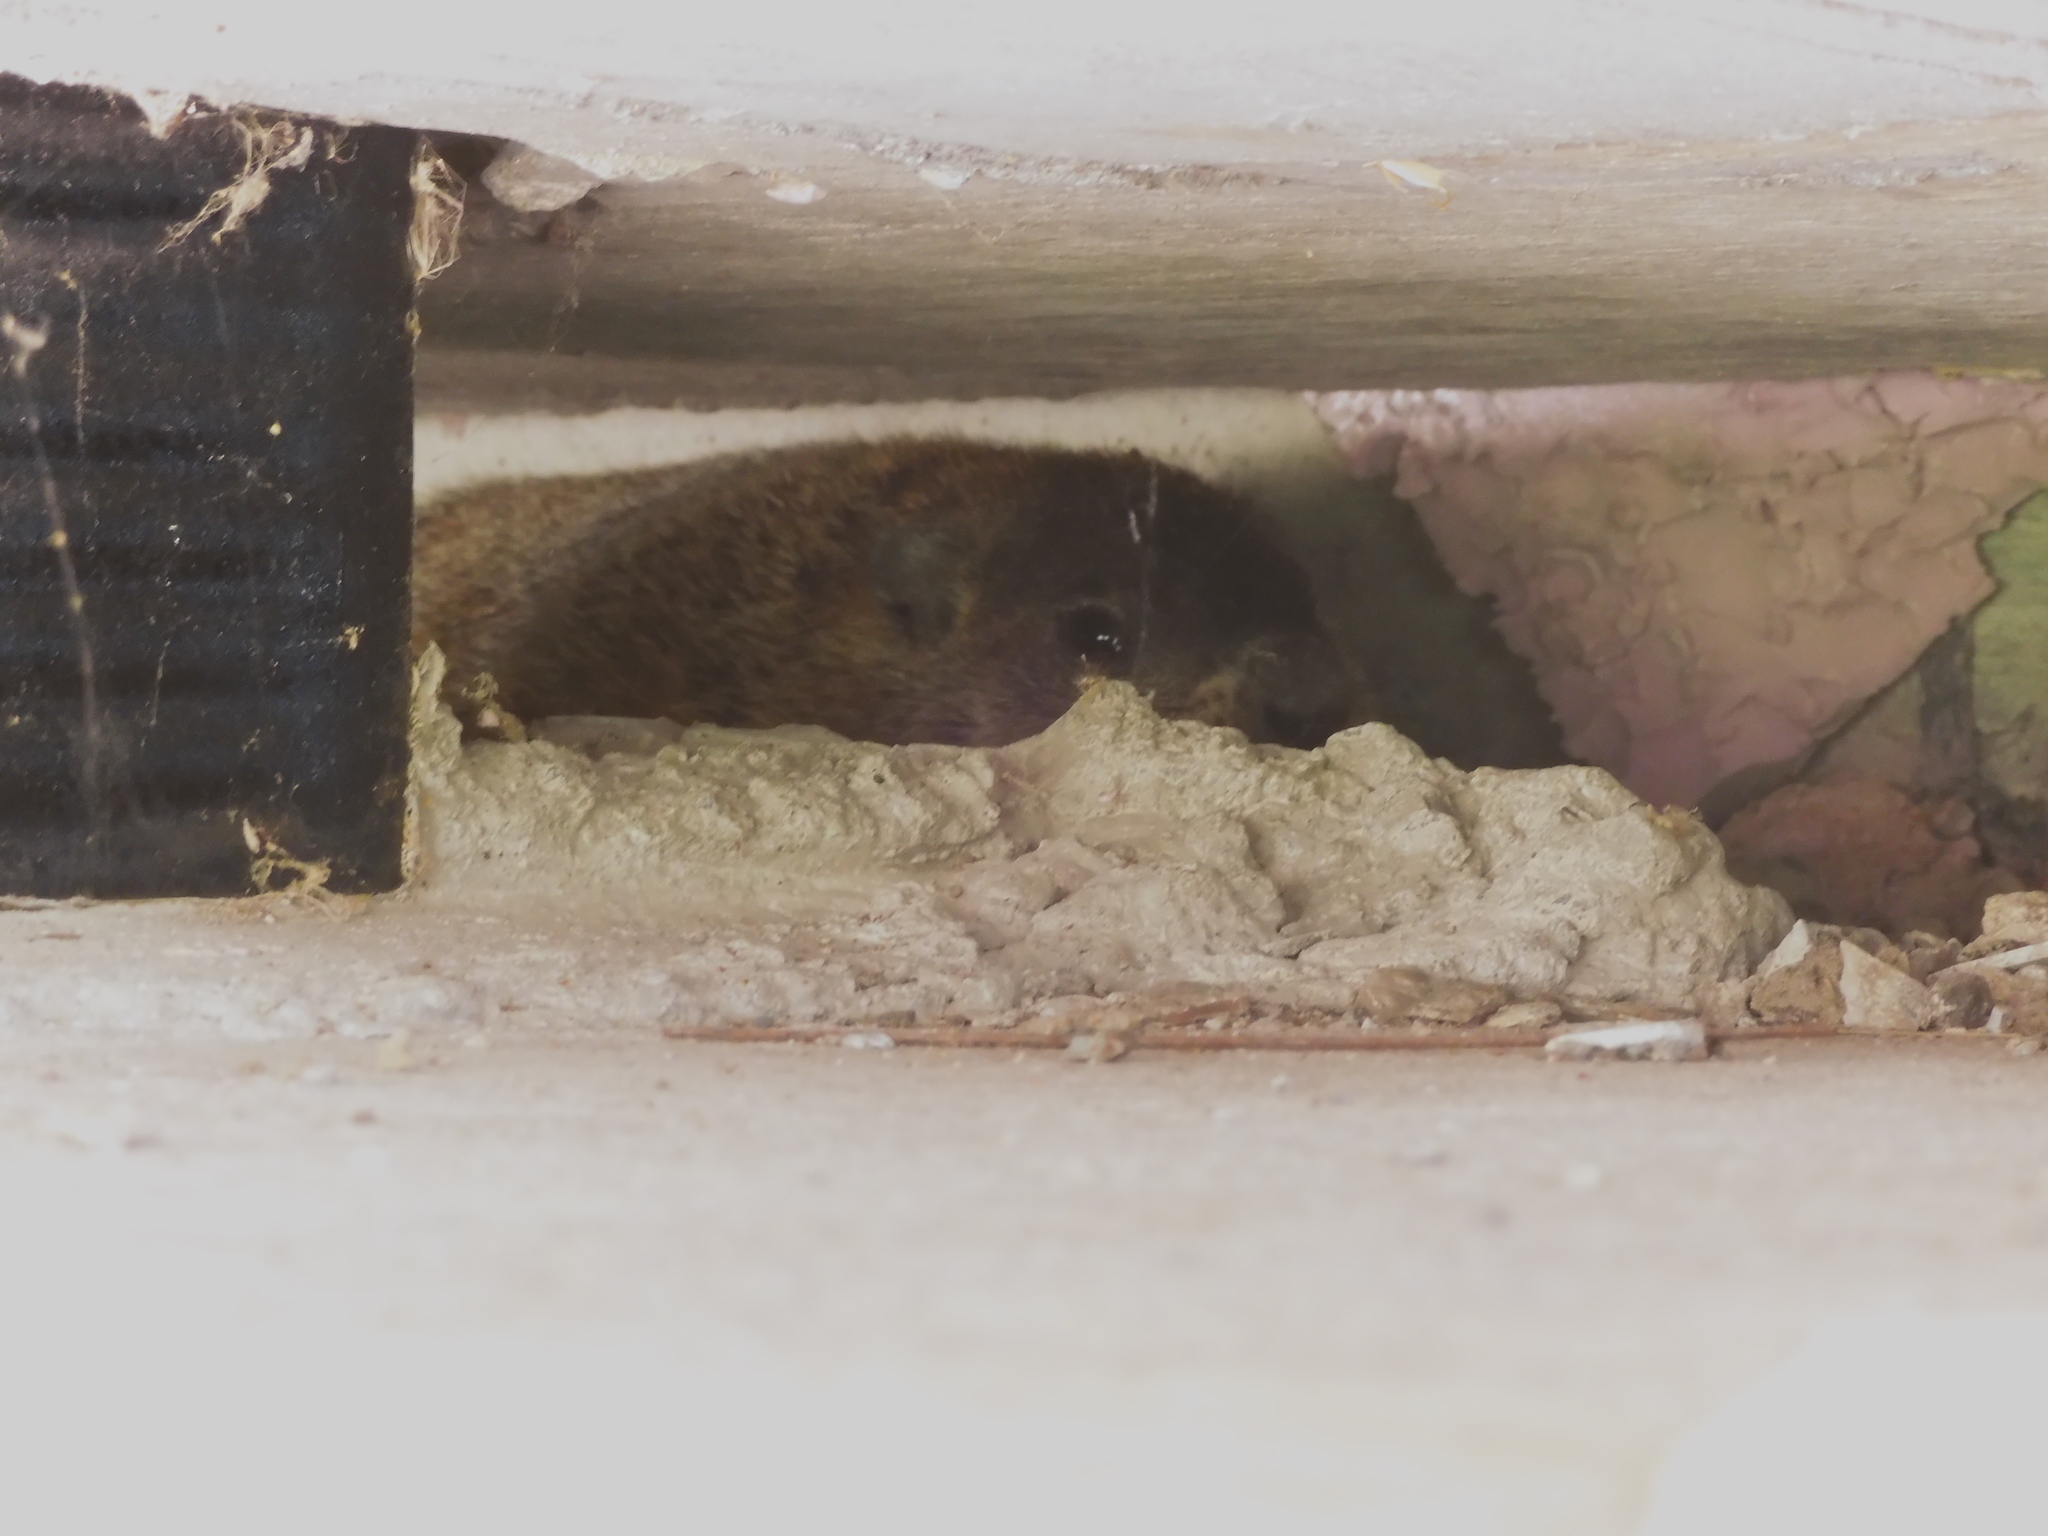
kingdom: Animalia
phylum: Chordata
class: Mammalia
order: Rodentia
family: Sciuridae
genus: Marmota
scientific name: Marmota monax
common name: Groundhog
